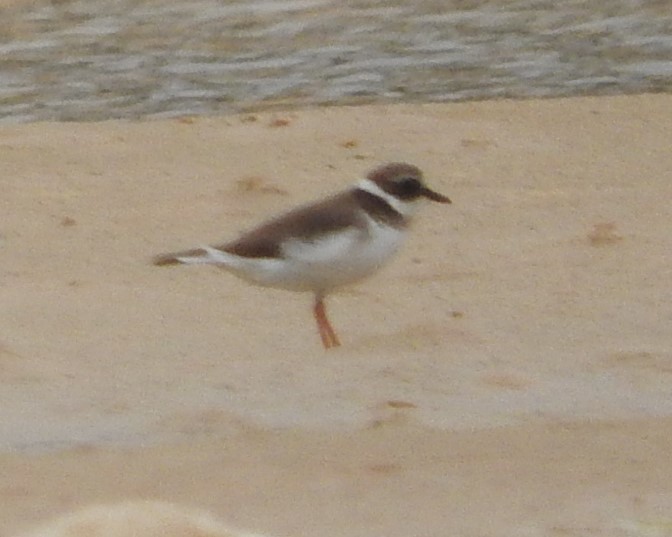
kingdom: Animalia
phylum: Chordata
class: Aves
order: Charadriiformes
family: Charadriidae
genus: Charadrius
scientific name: Charadrius hiaticula
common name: Common ringed plover
